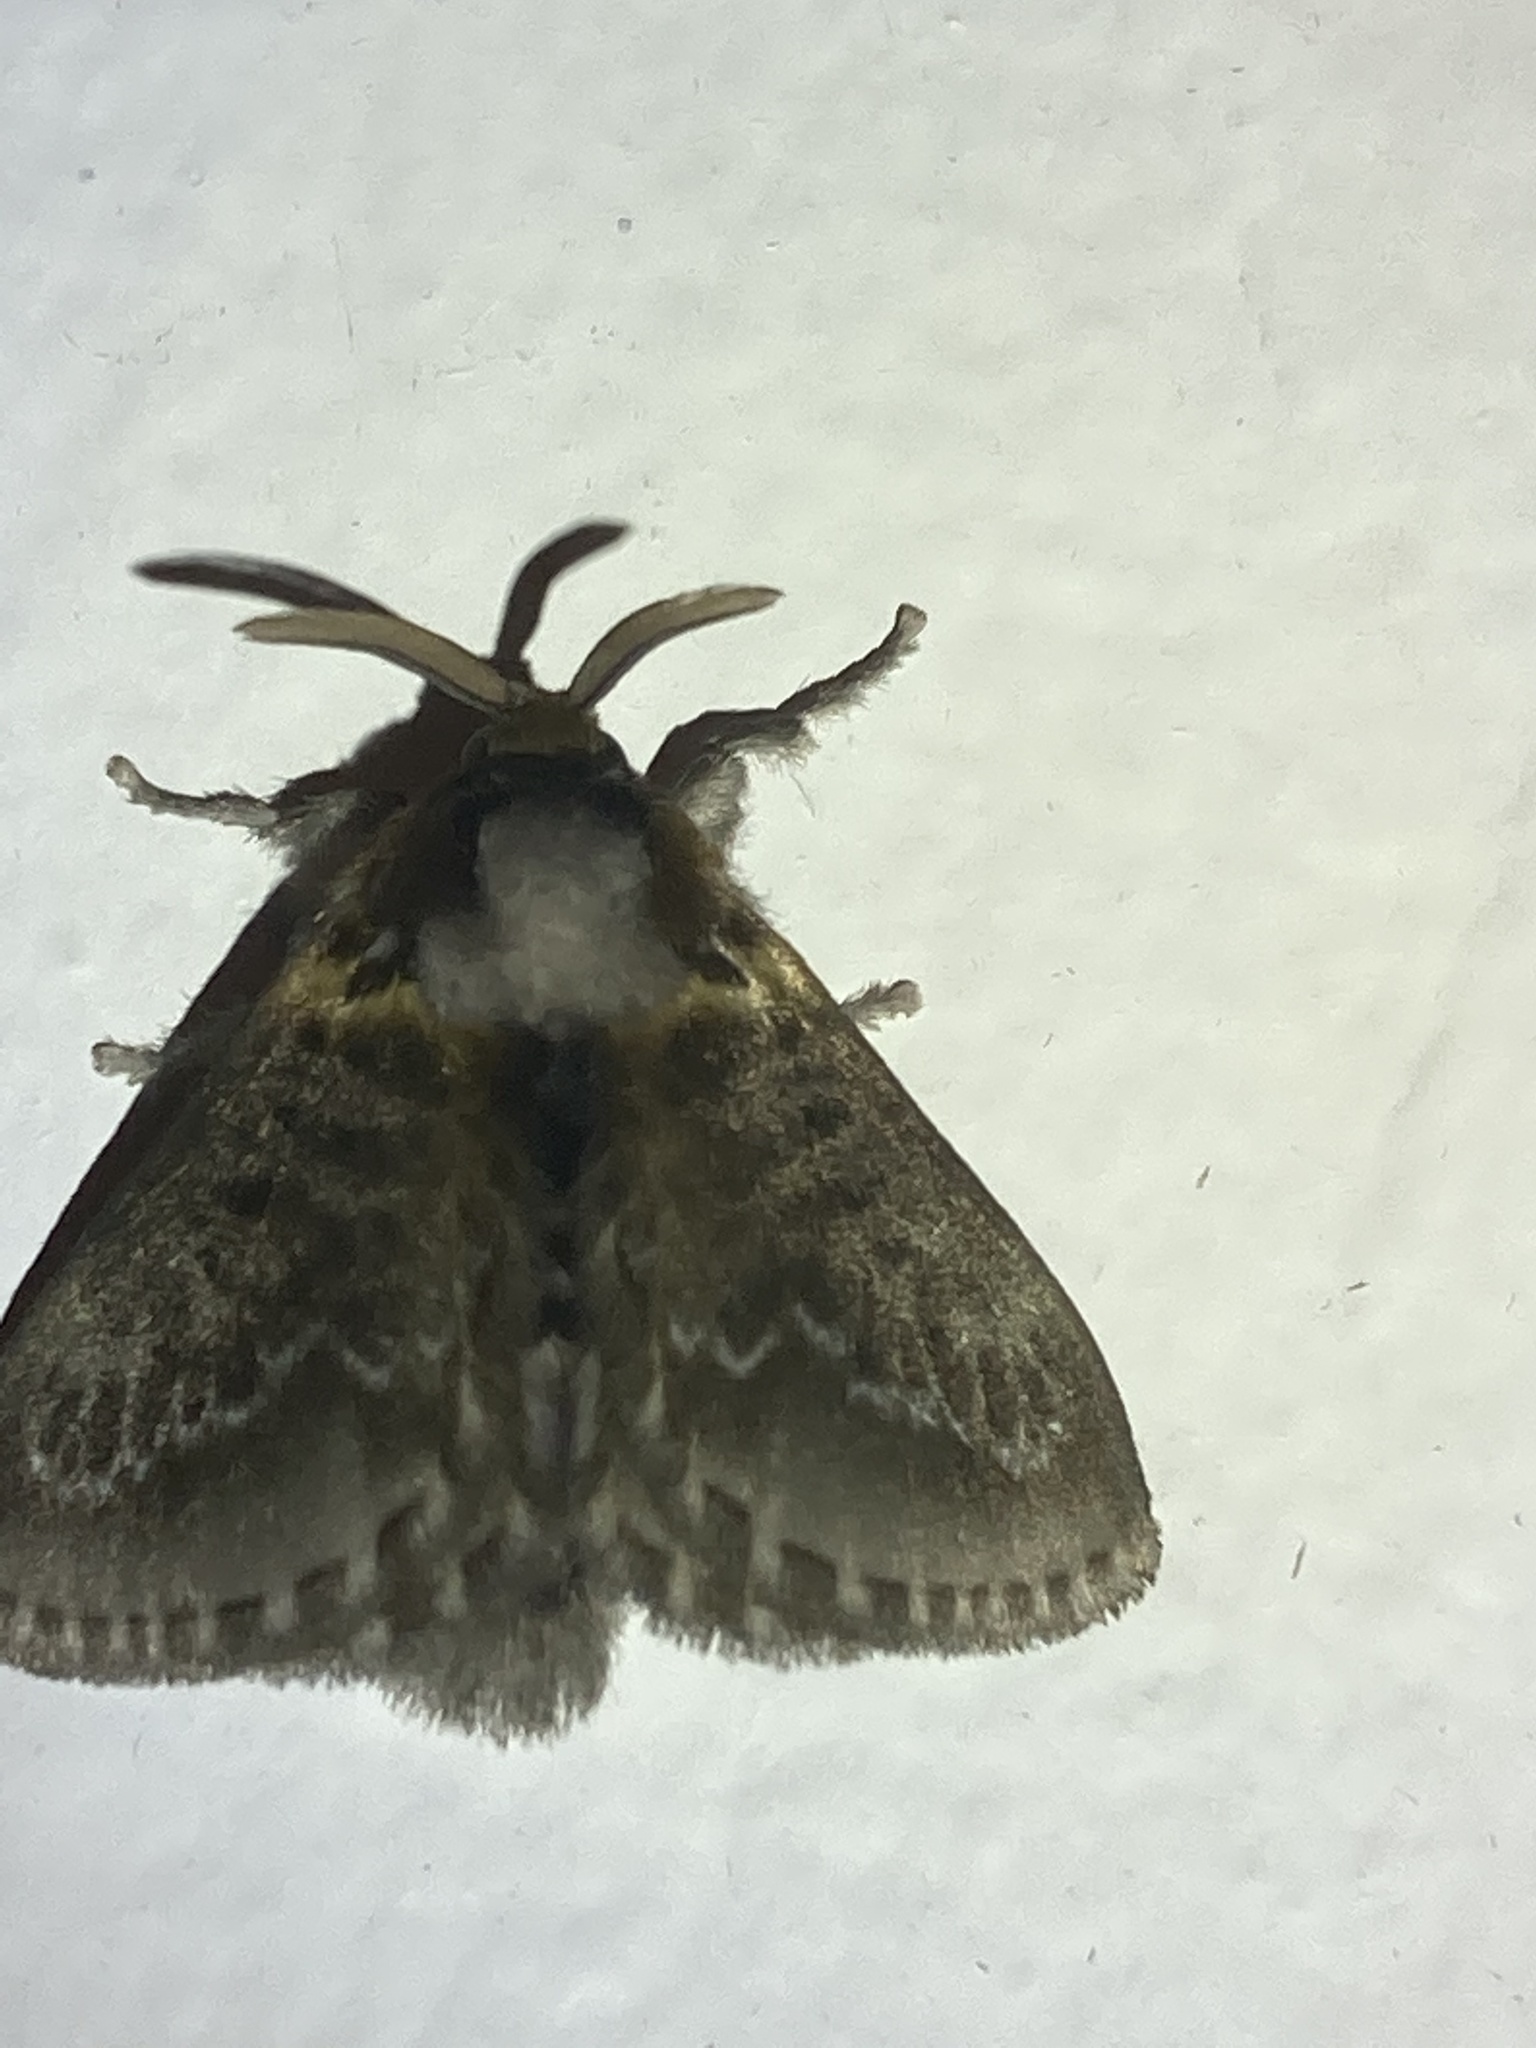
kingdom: Animalia
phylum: Arthropoda
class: Insecta
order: Lepidoptera
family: Megalopygidae
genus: Podalia
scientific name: Podalia contigua
